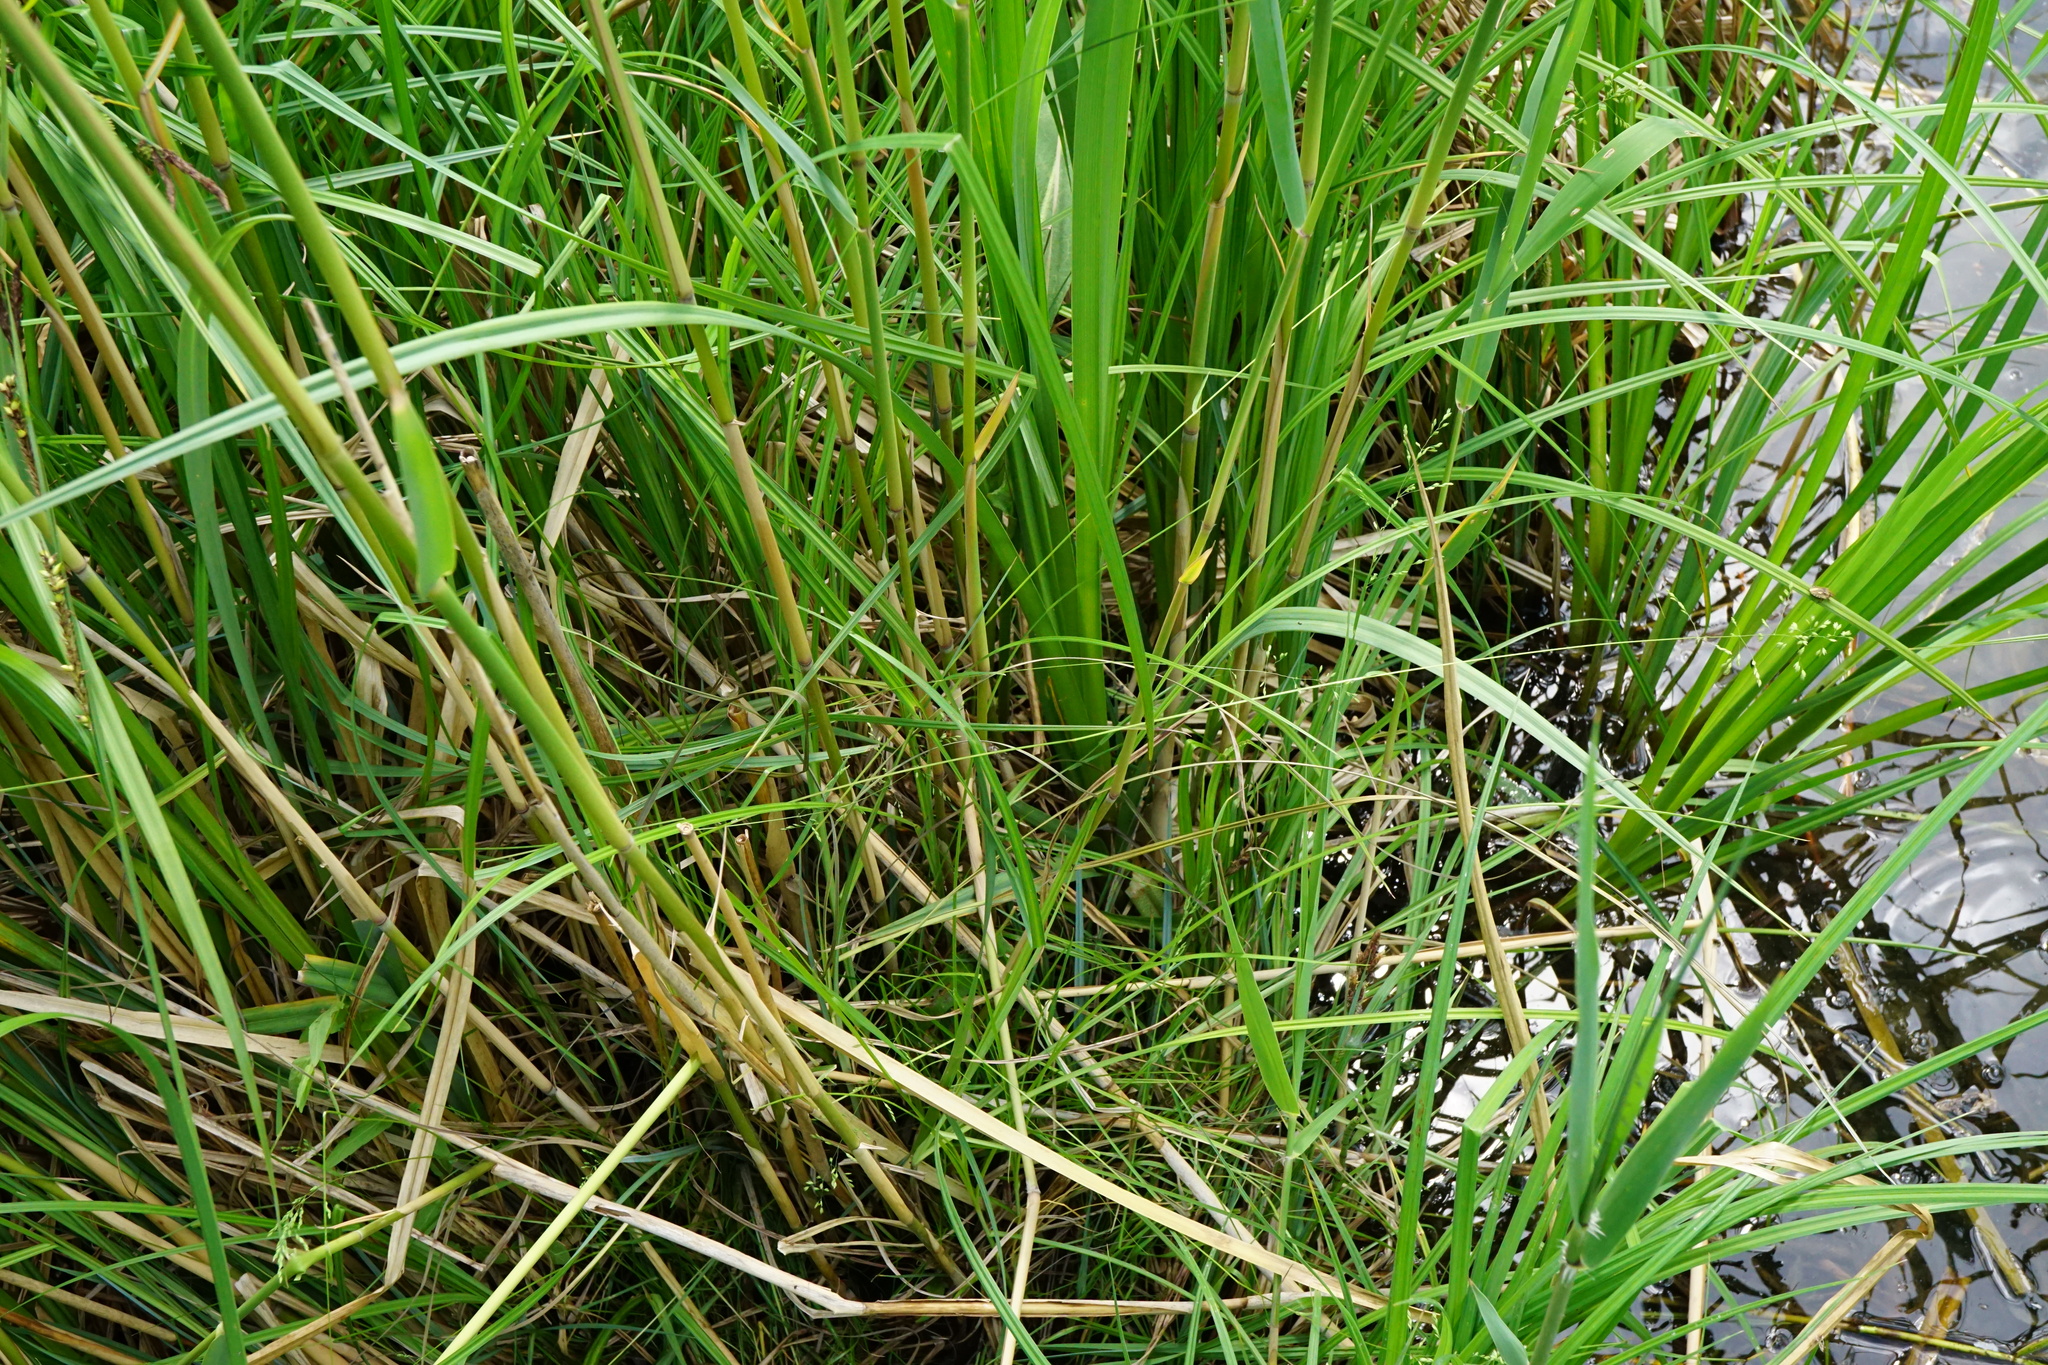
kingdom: Plantae
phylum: Tracheophyta
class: Liliopsida
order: Poales
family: Poaceae
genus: Poa
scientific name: Poa palustris
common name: Swamp meadow-grass
